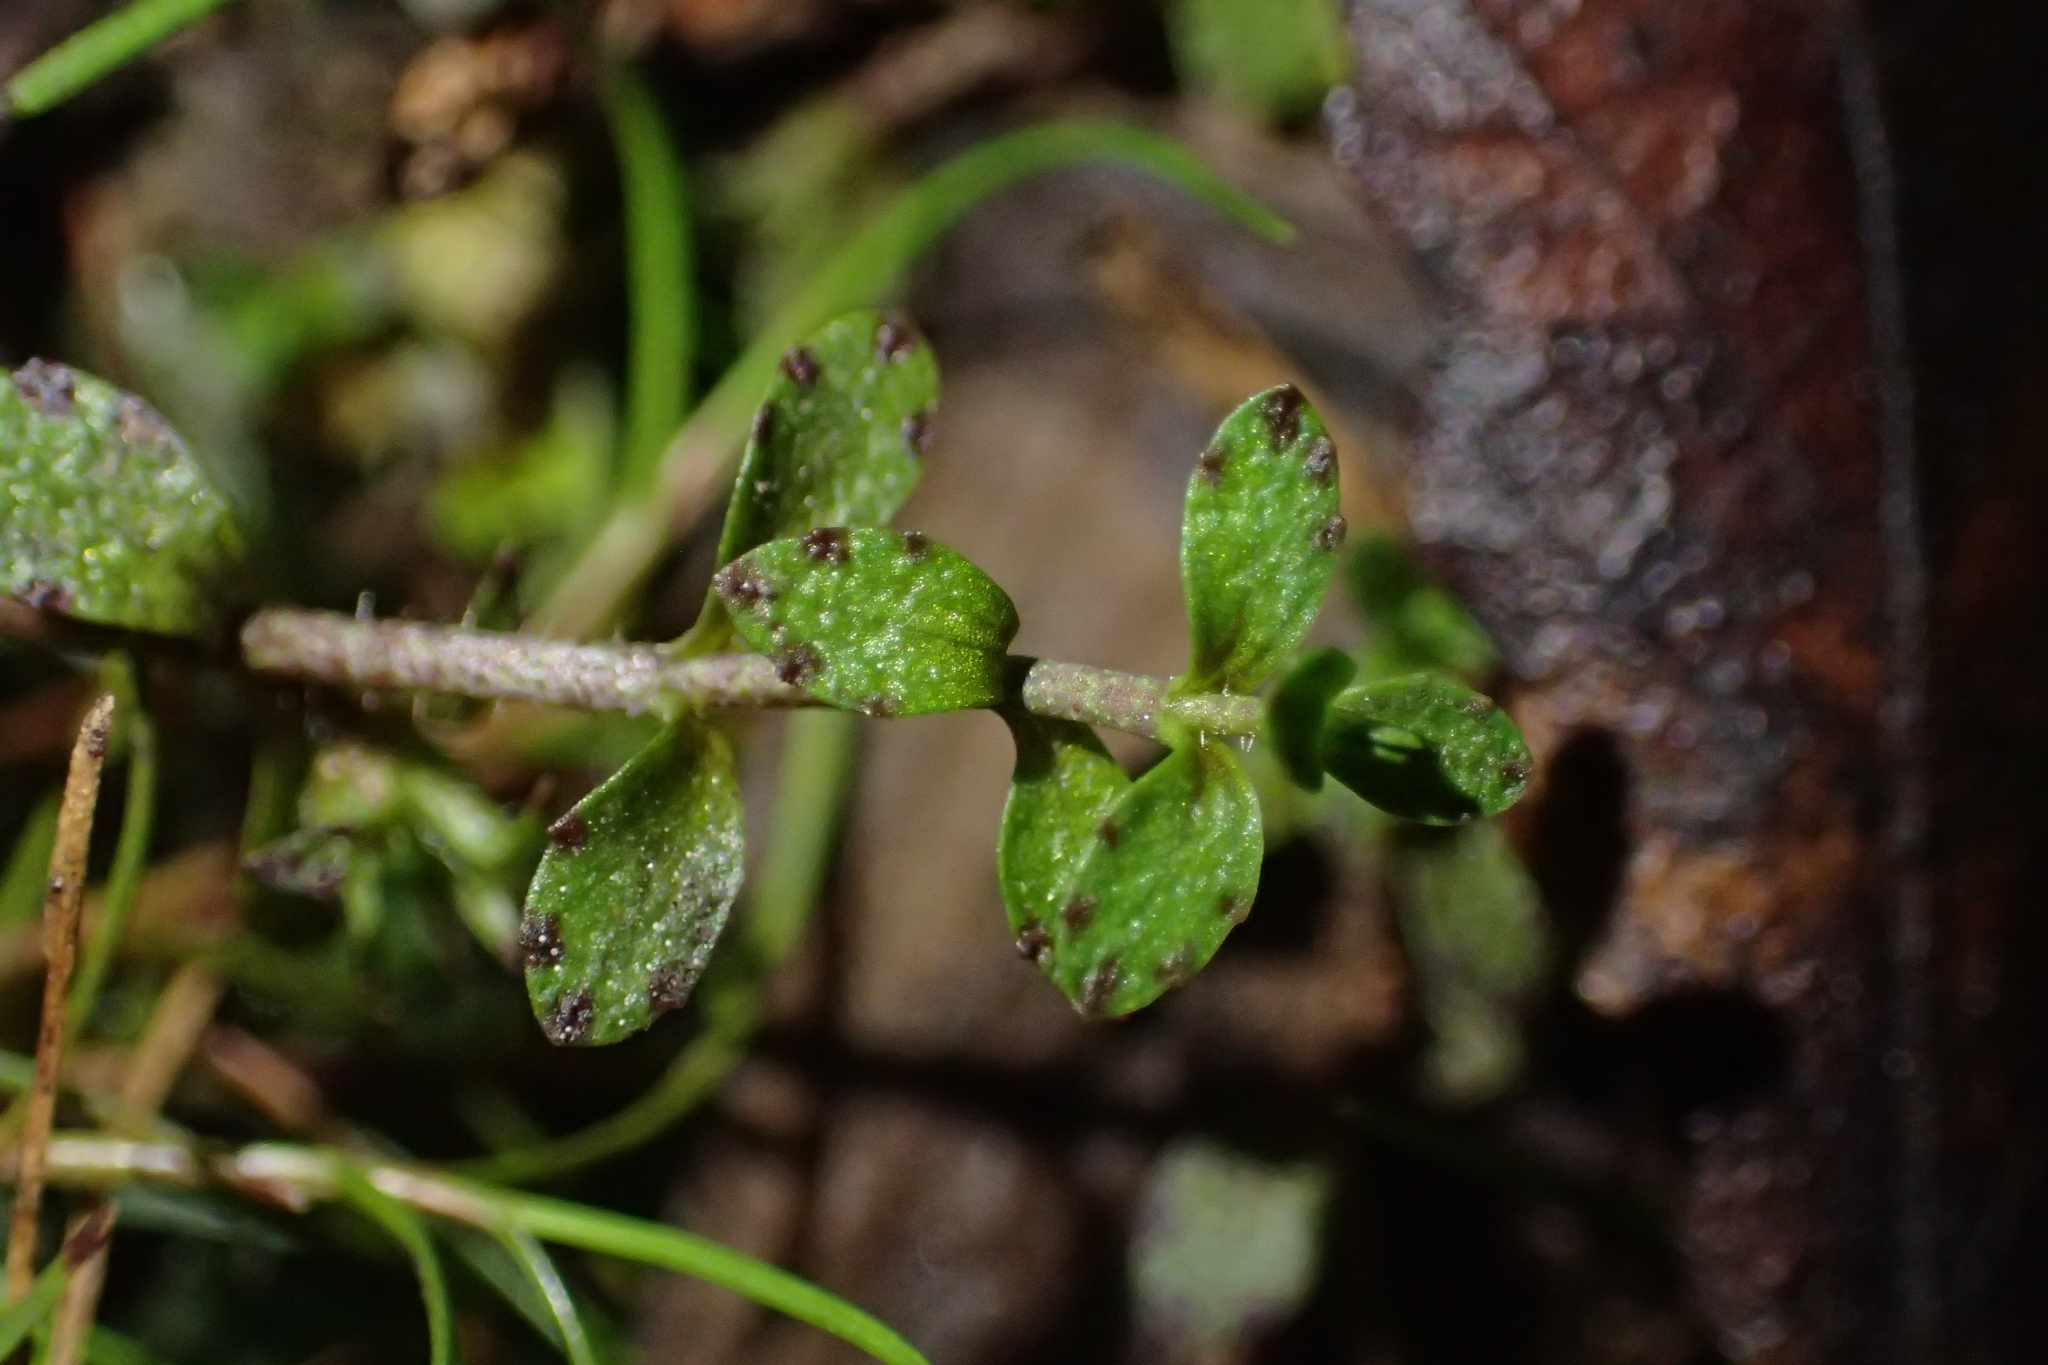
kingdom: Plantae
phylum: Tracheophyta
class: Magnoliopsida
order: Lamiales
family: Plantaginaceae
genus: Gratiola
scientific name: Gratiola nana
